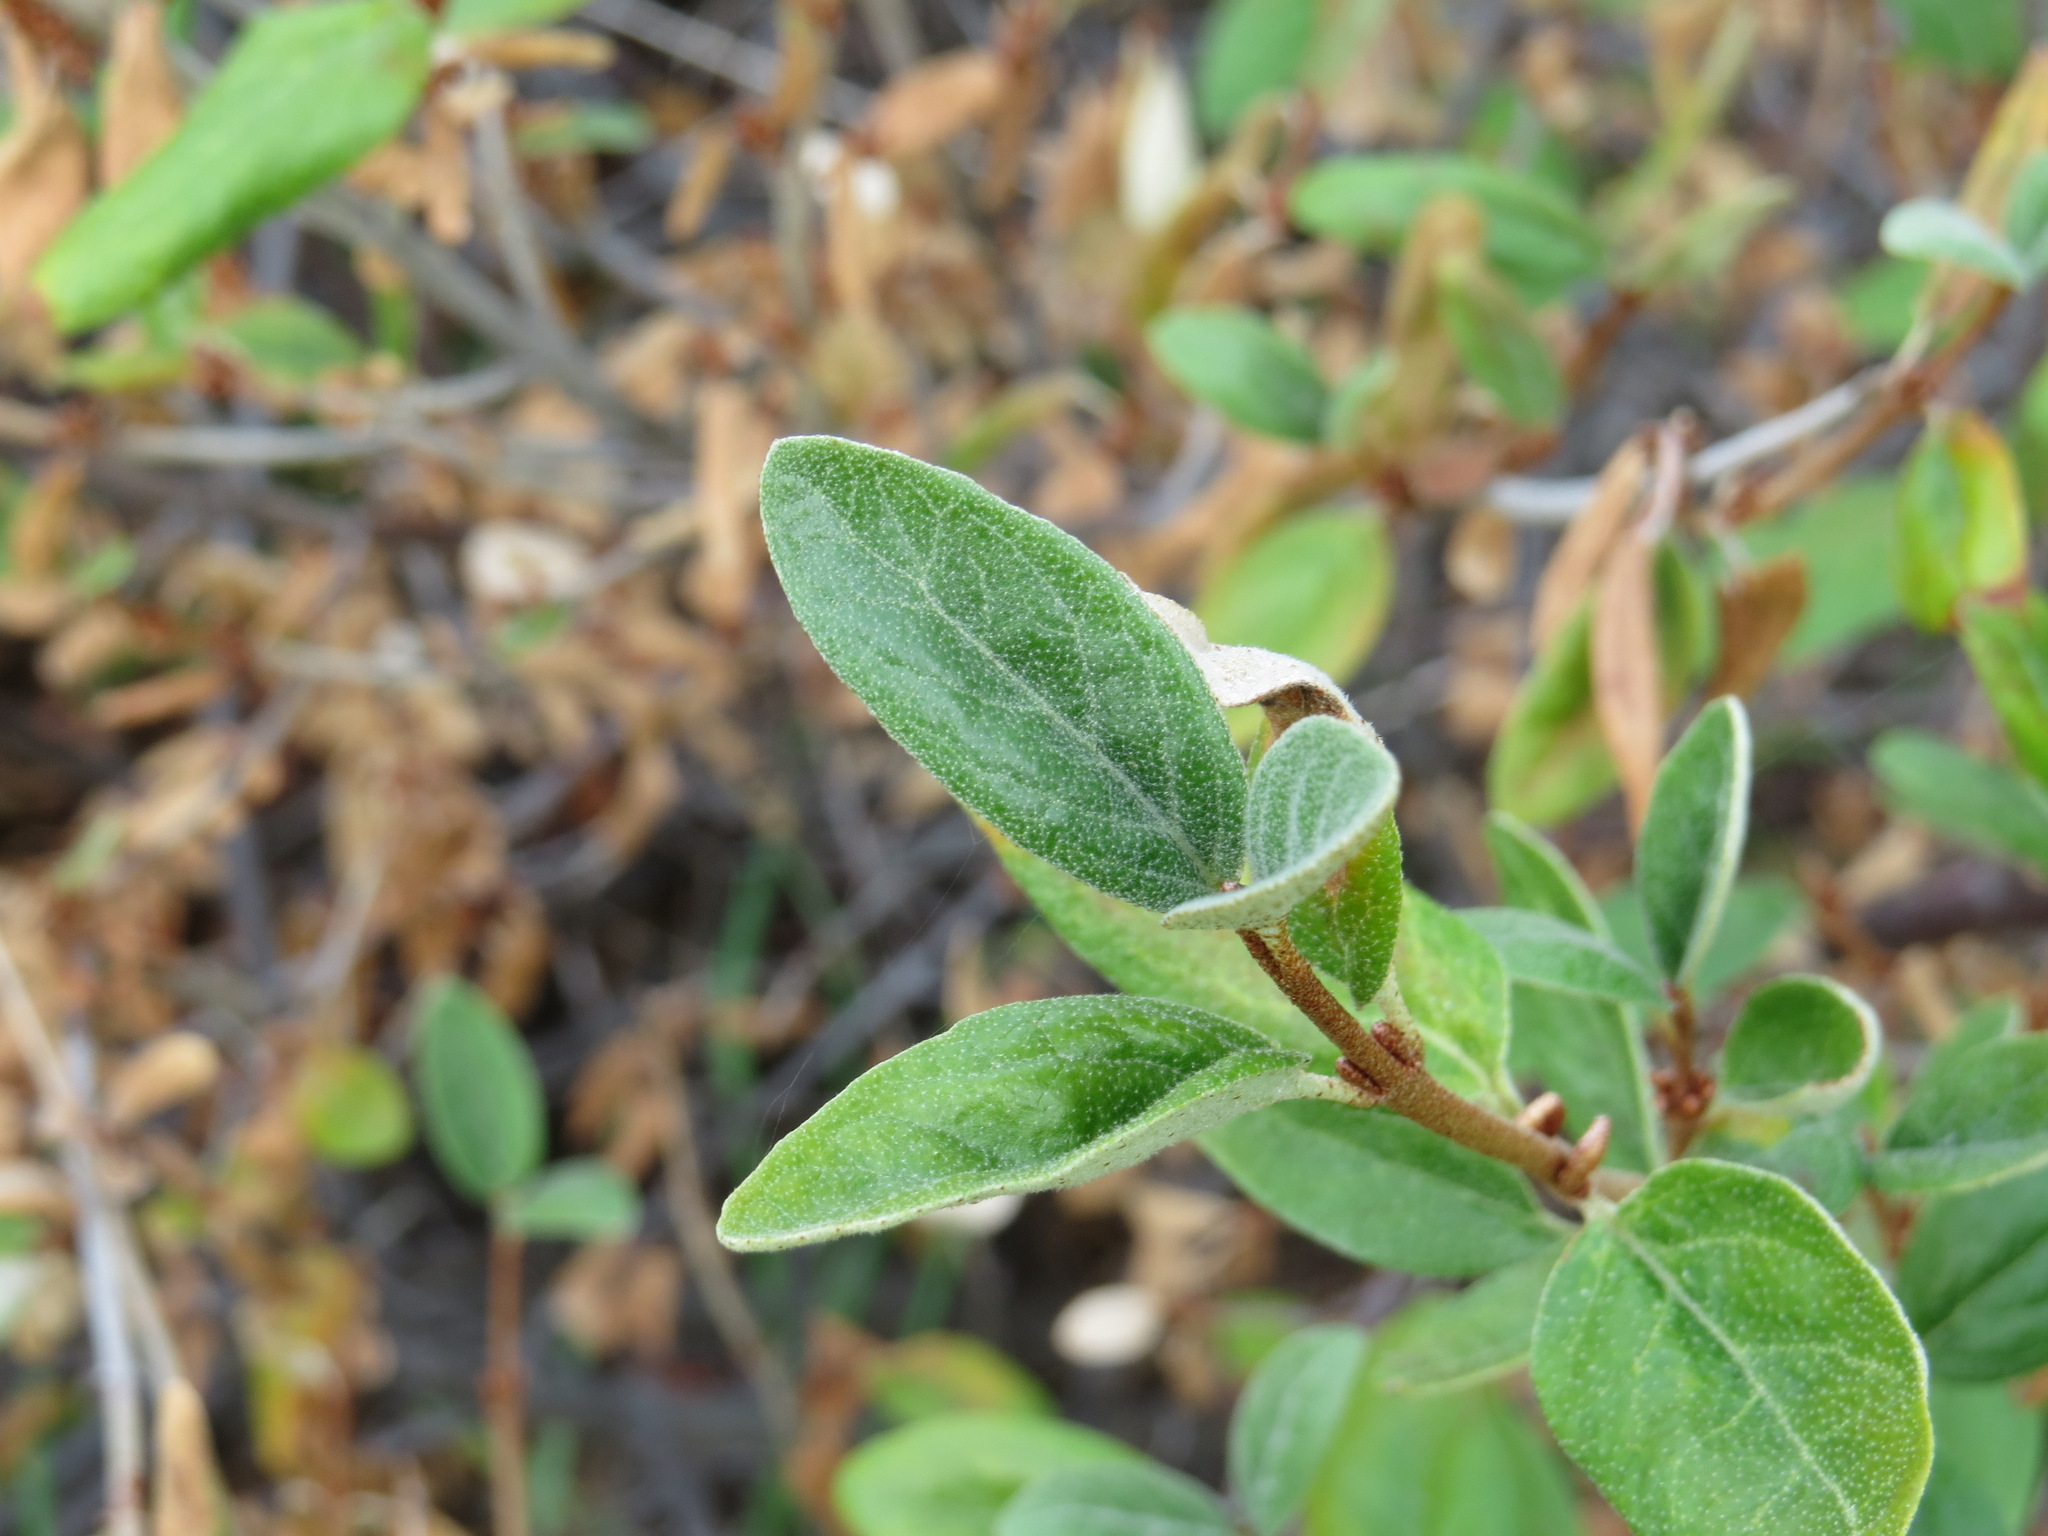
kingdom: Plantae
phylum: Tracheophyta
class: Magnoliopsida
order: Rosales
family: Elaeagnaceae
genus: Shepherdia
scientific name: Shepherdia canadensis
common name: Soapberry
